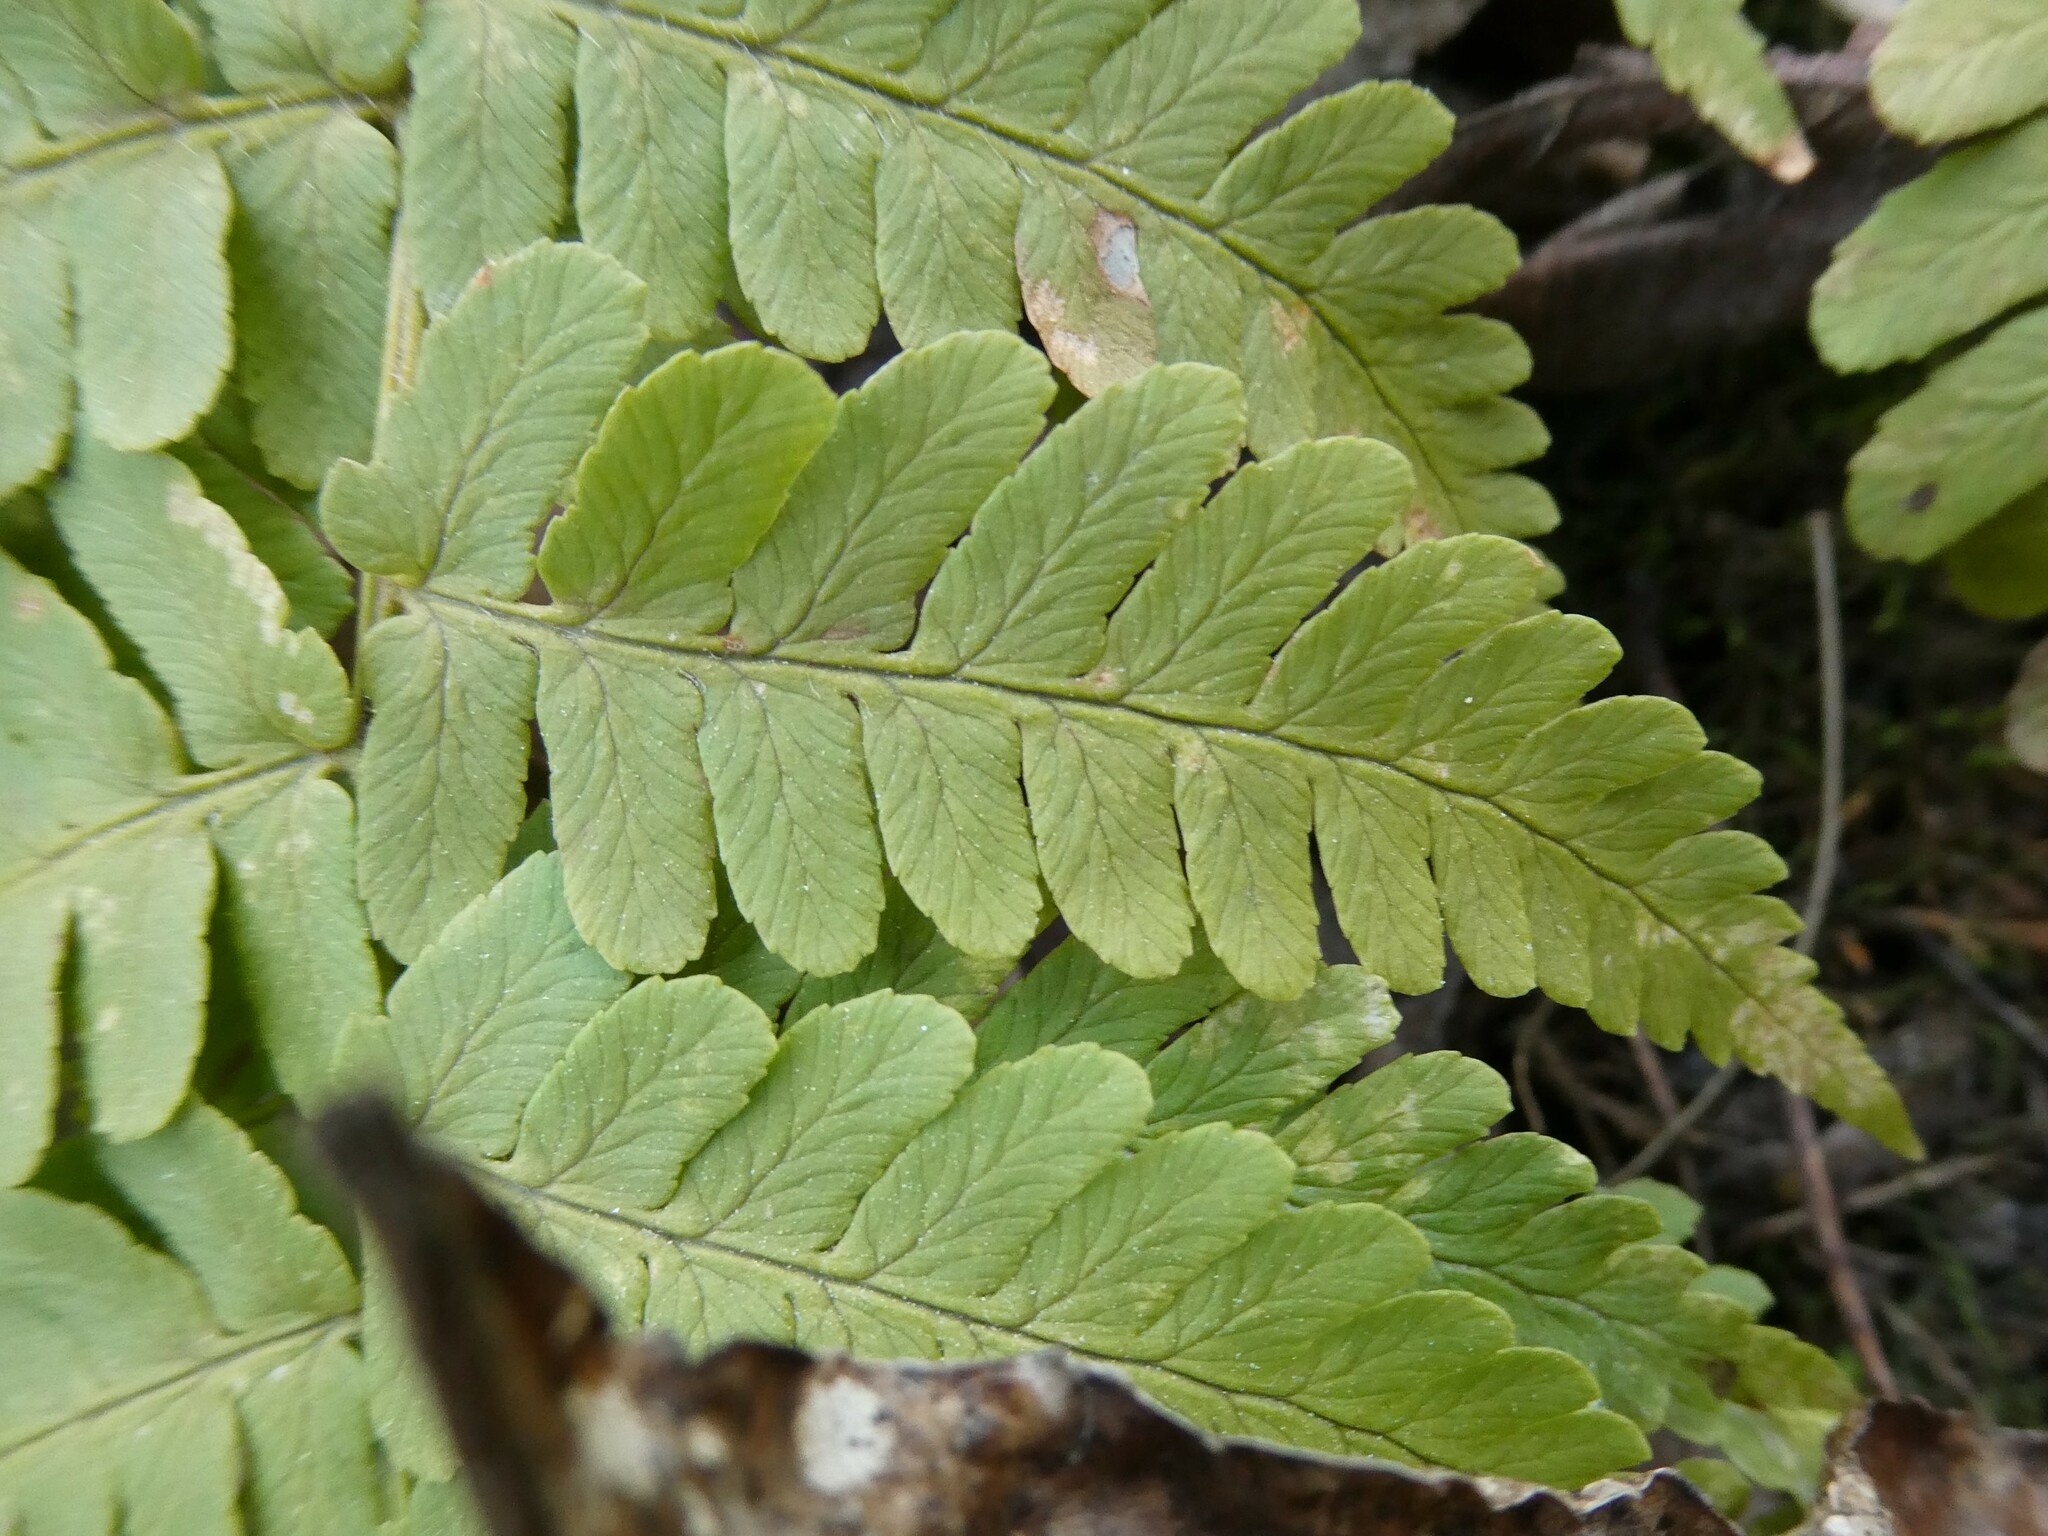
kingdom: Plantae
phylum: Tracheophyta
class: Polypodiopsida
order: Polypodiales
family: Dryopteridaceae
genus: Dryopteris
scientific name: Dryopteris marginalis
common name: Marginal wood fern
